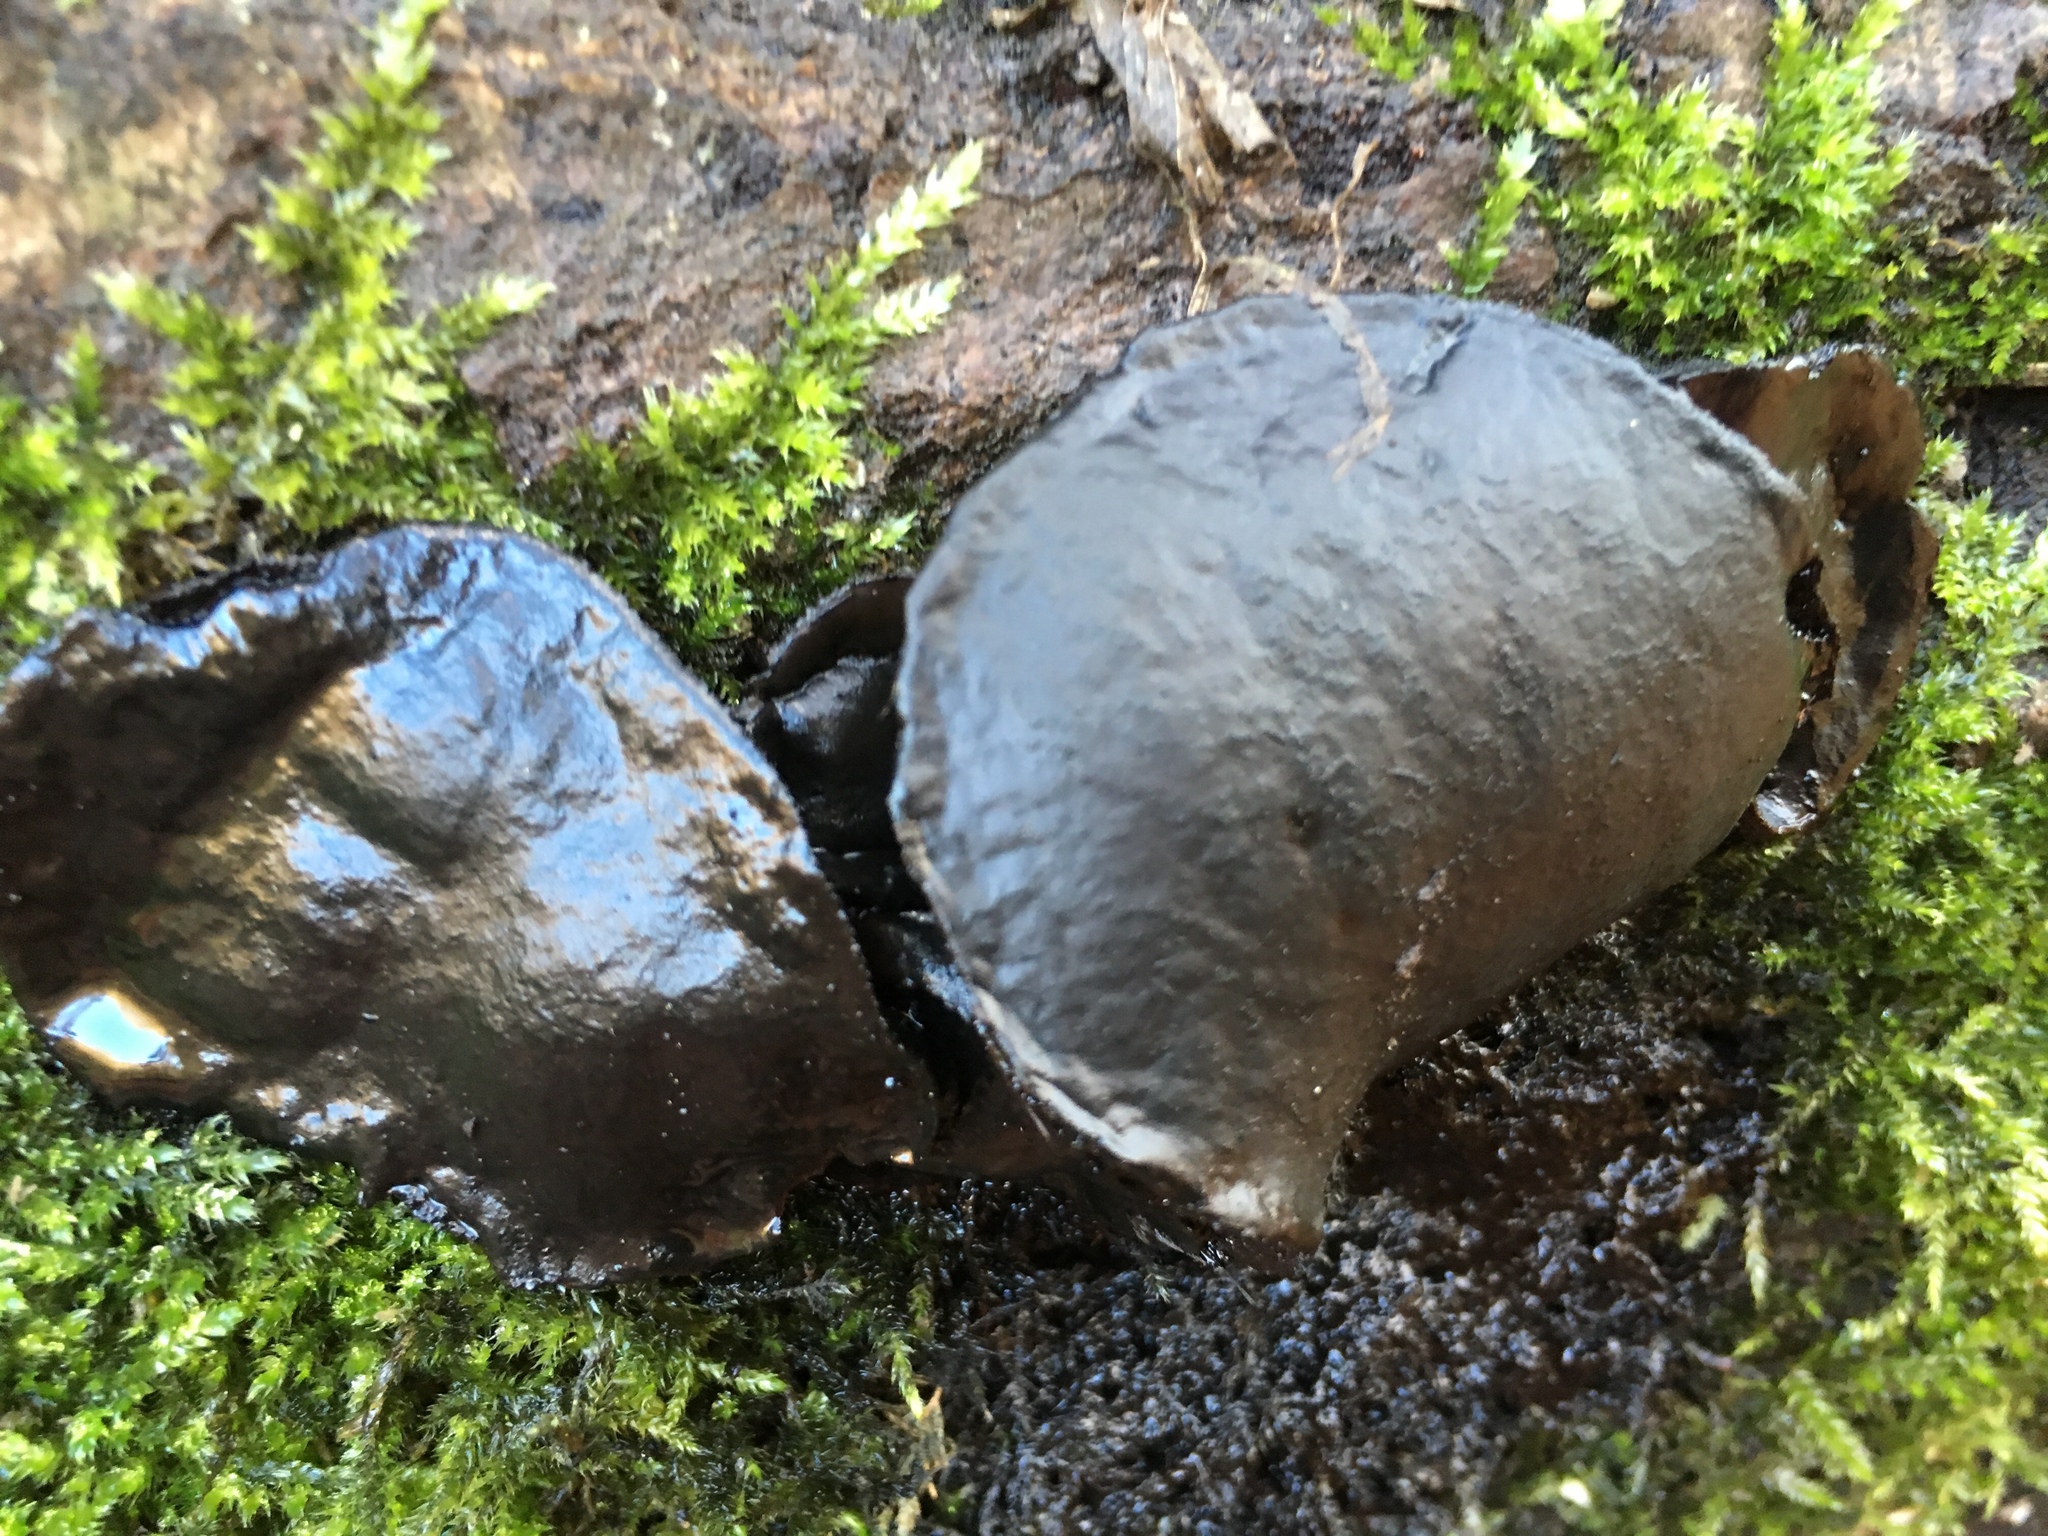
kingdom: Fungi
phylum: Ascomycota
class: Leotiomycetes
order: Phacidiales
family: Phacidiaceae
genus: Bulgaria
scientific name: Bulgaria inquinans
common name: Black bulgar
